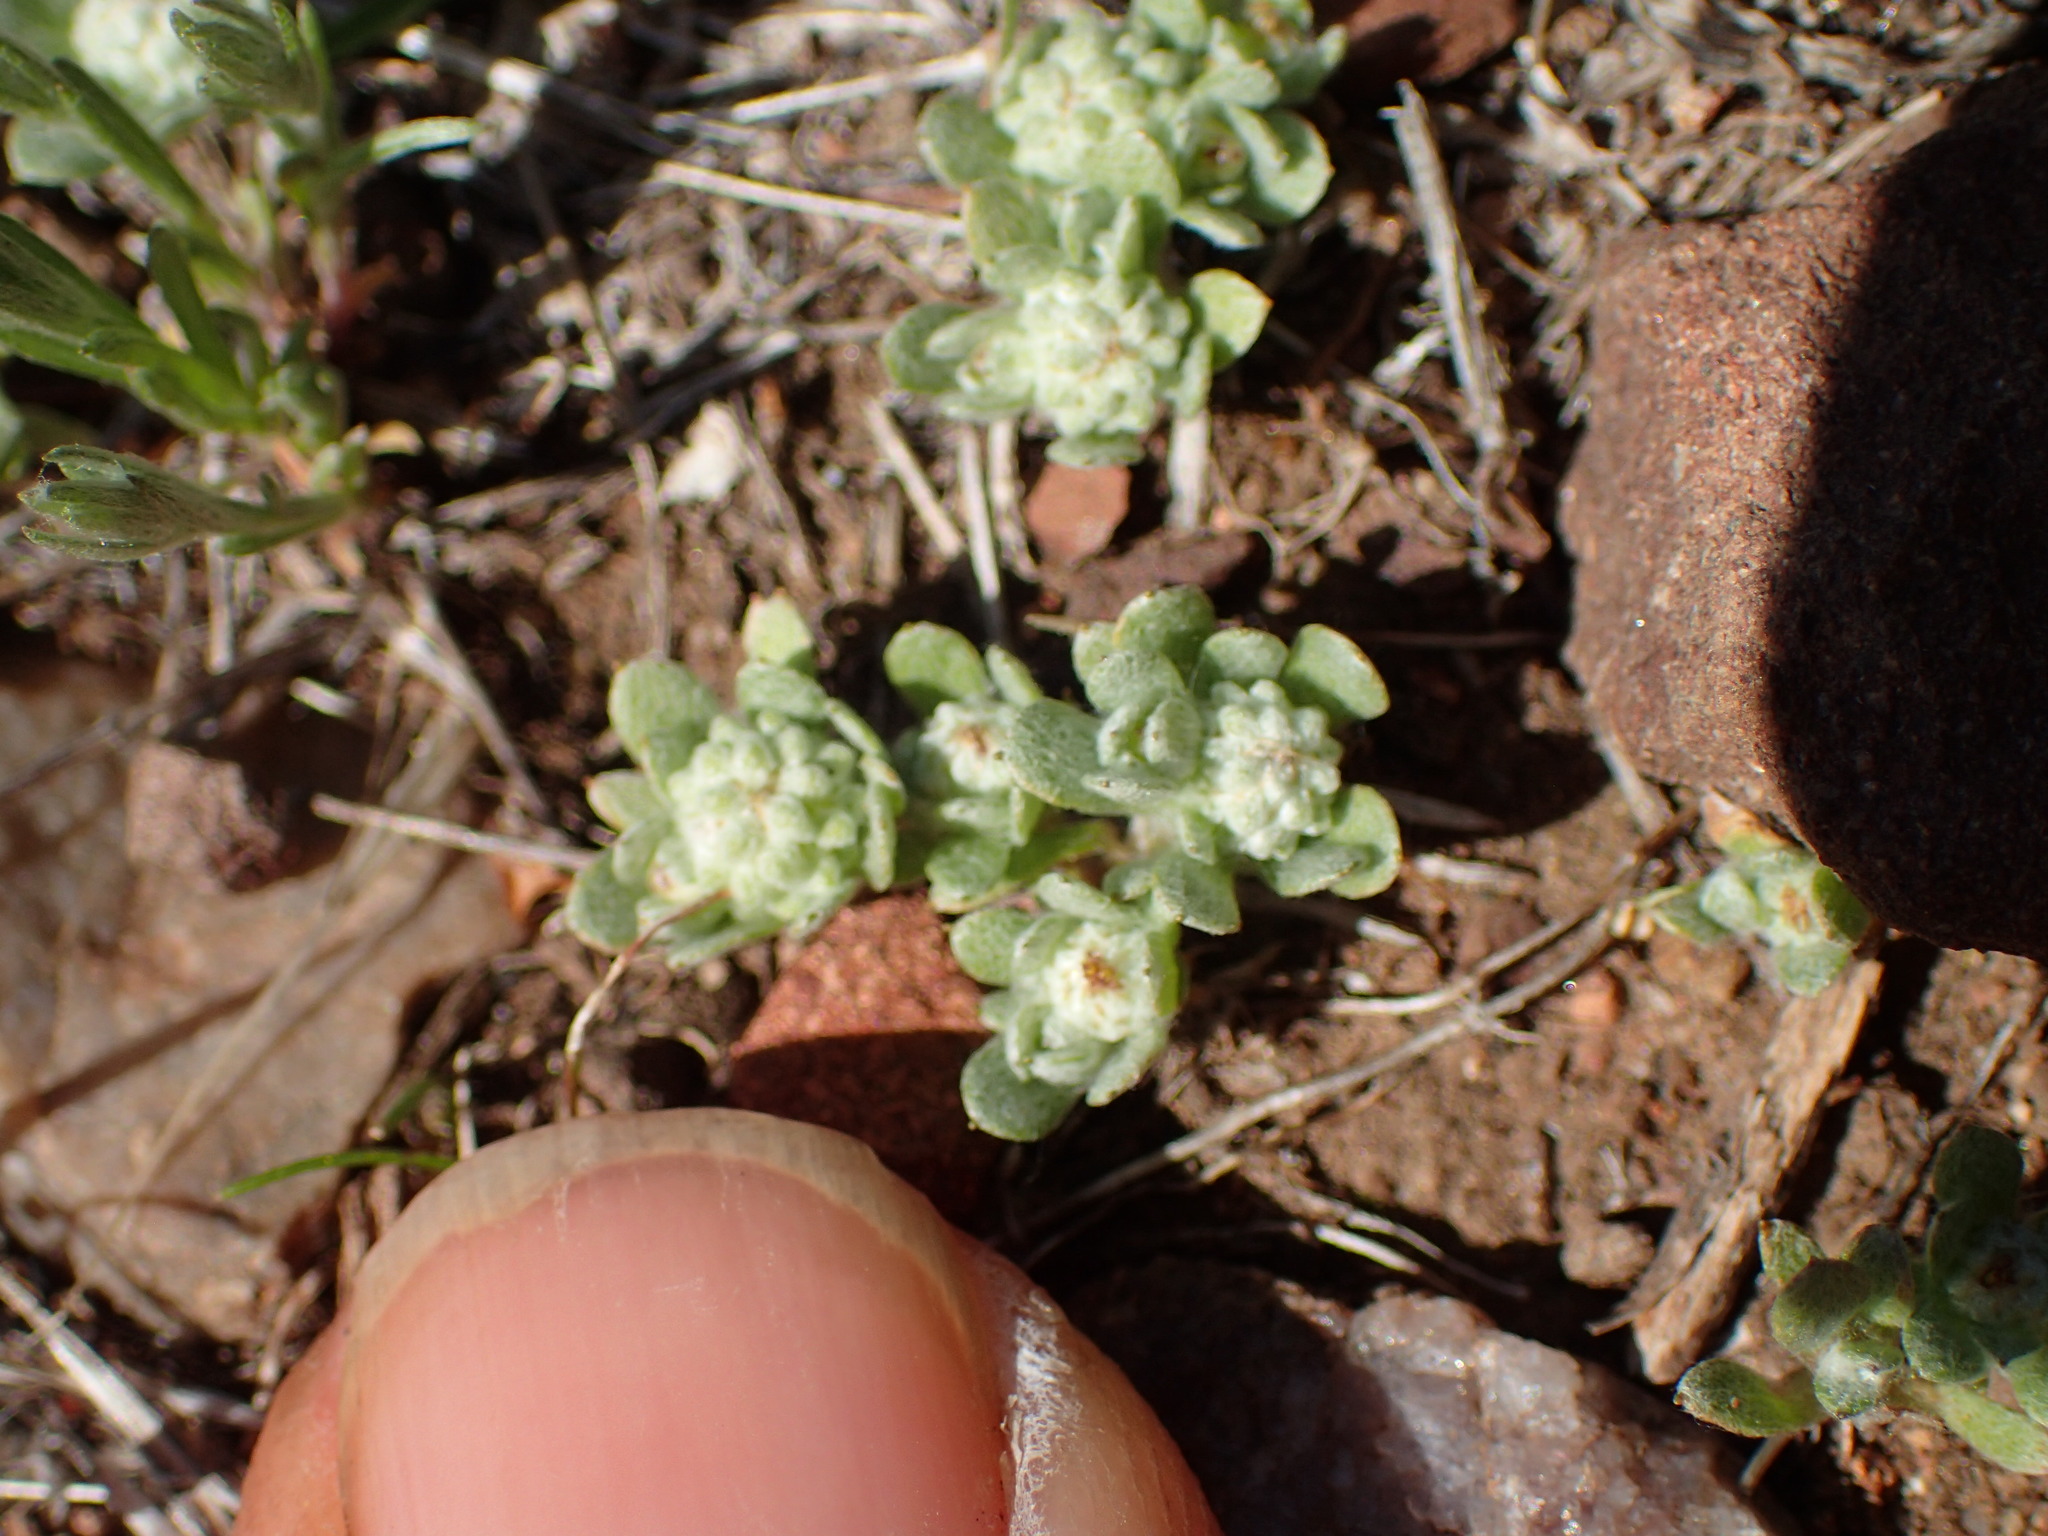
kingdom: Plantae
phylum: Tracheophyta
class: Magnoliopsida
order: Asterales
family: Asteraceae
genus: Psilocarphus
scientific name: Psilocarphus tenellus
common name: Slender woolly-marbles
